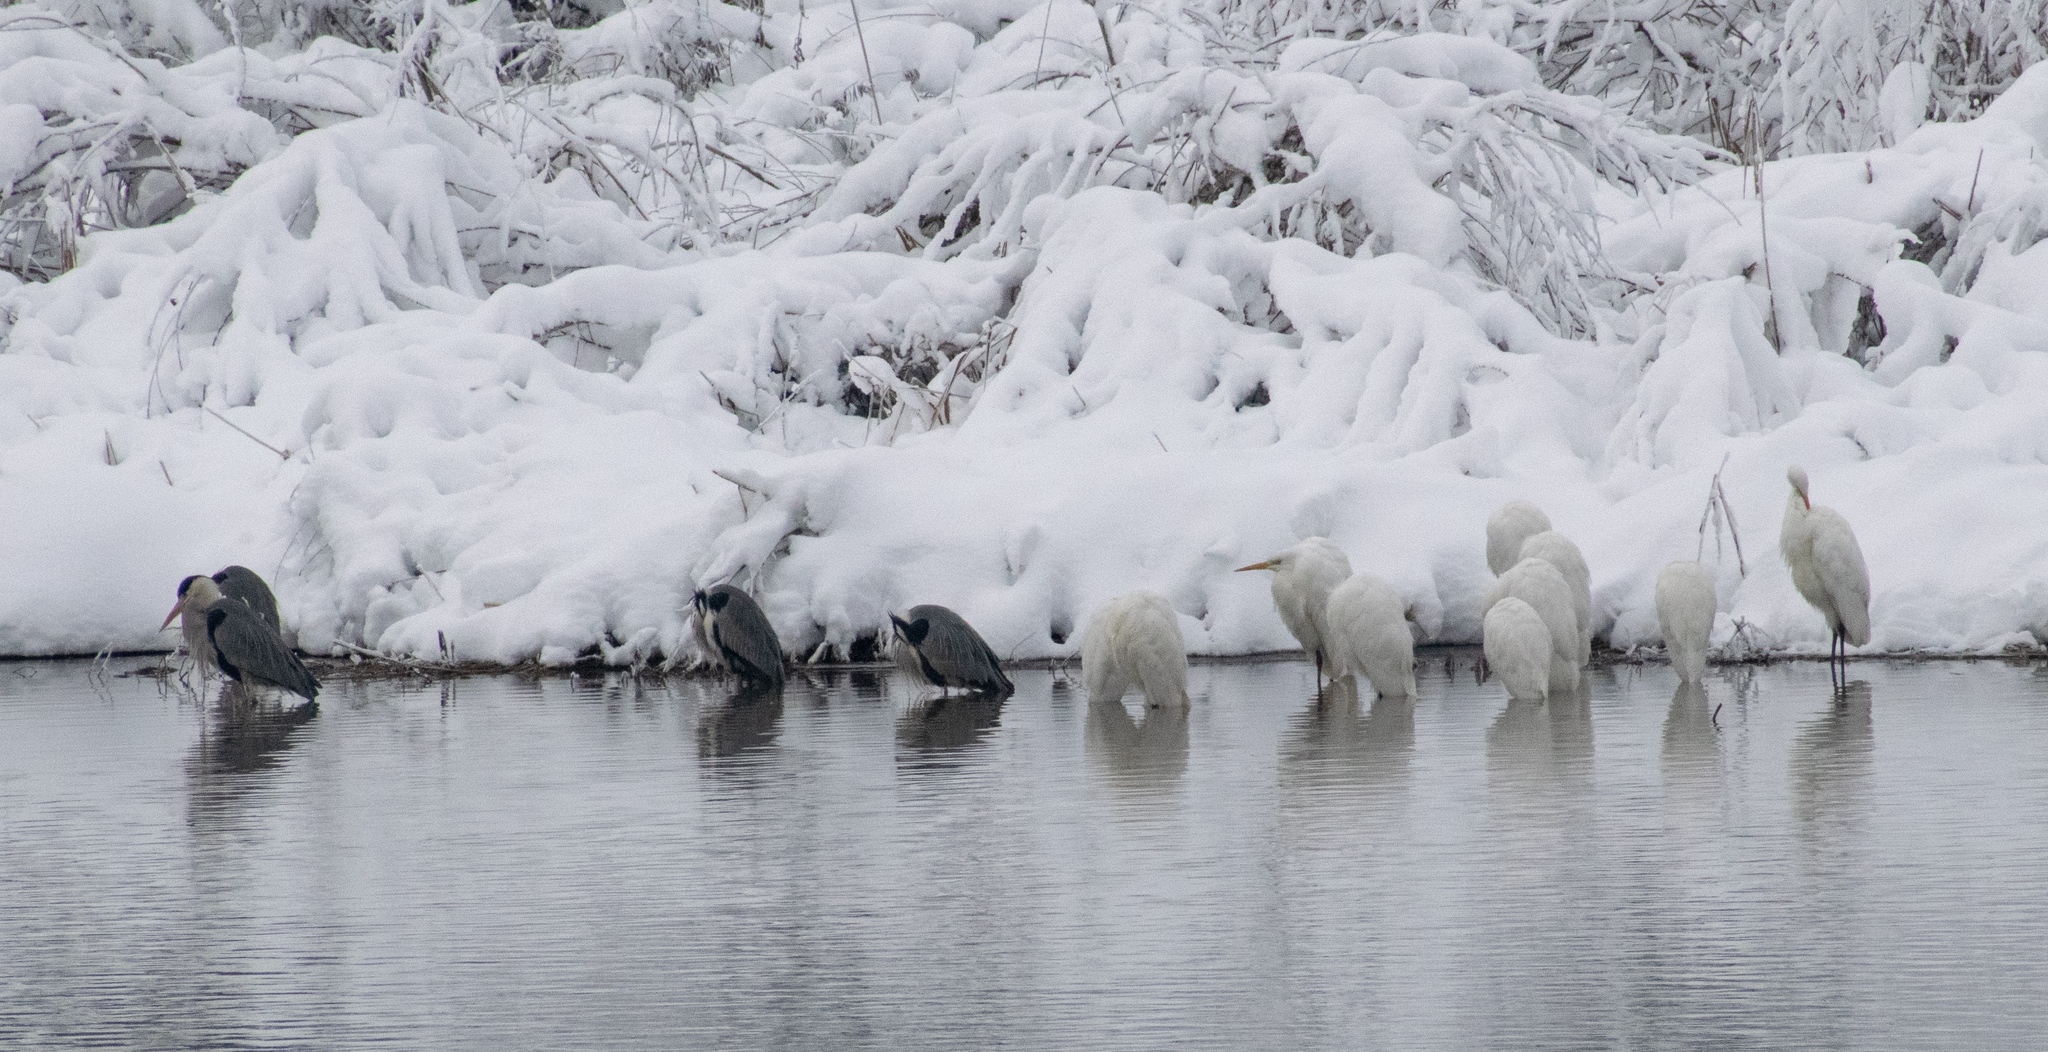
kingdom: Animalia
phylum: Chordata
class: Aves
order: Pelecaniformes
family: Ardeidae
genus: Ardea
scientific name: Ardea alba
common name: Great egret
